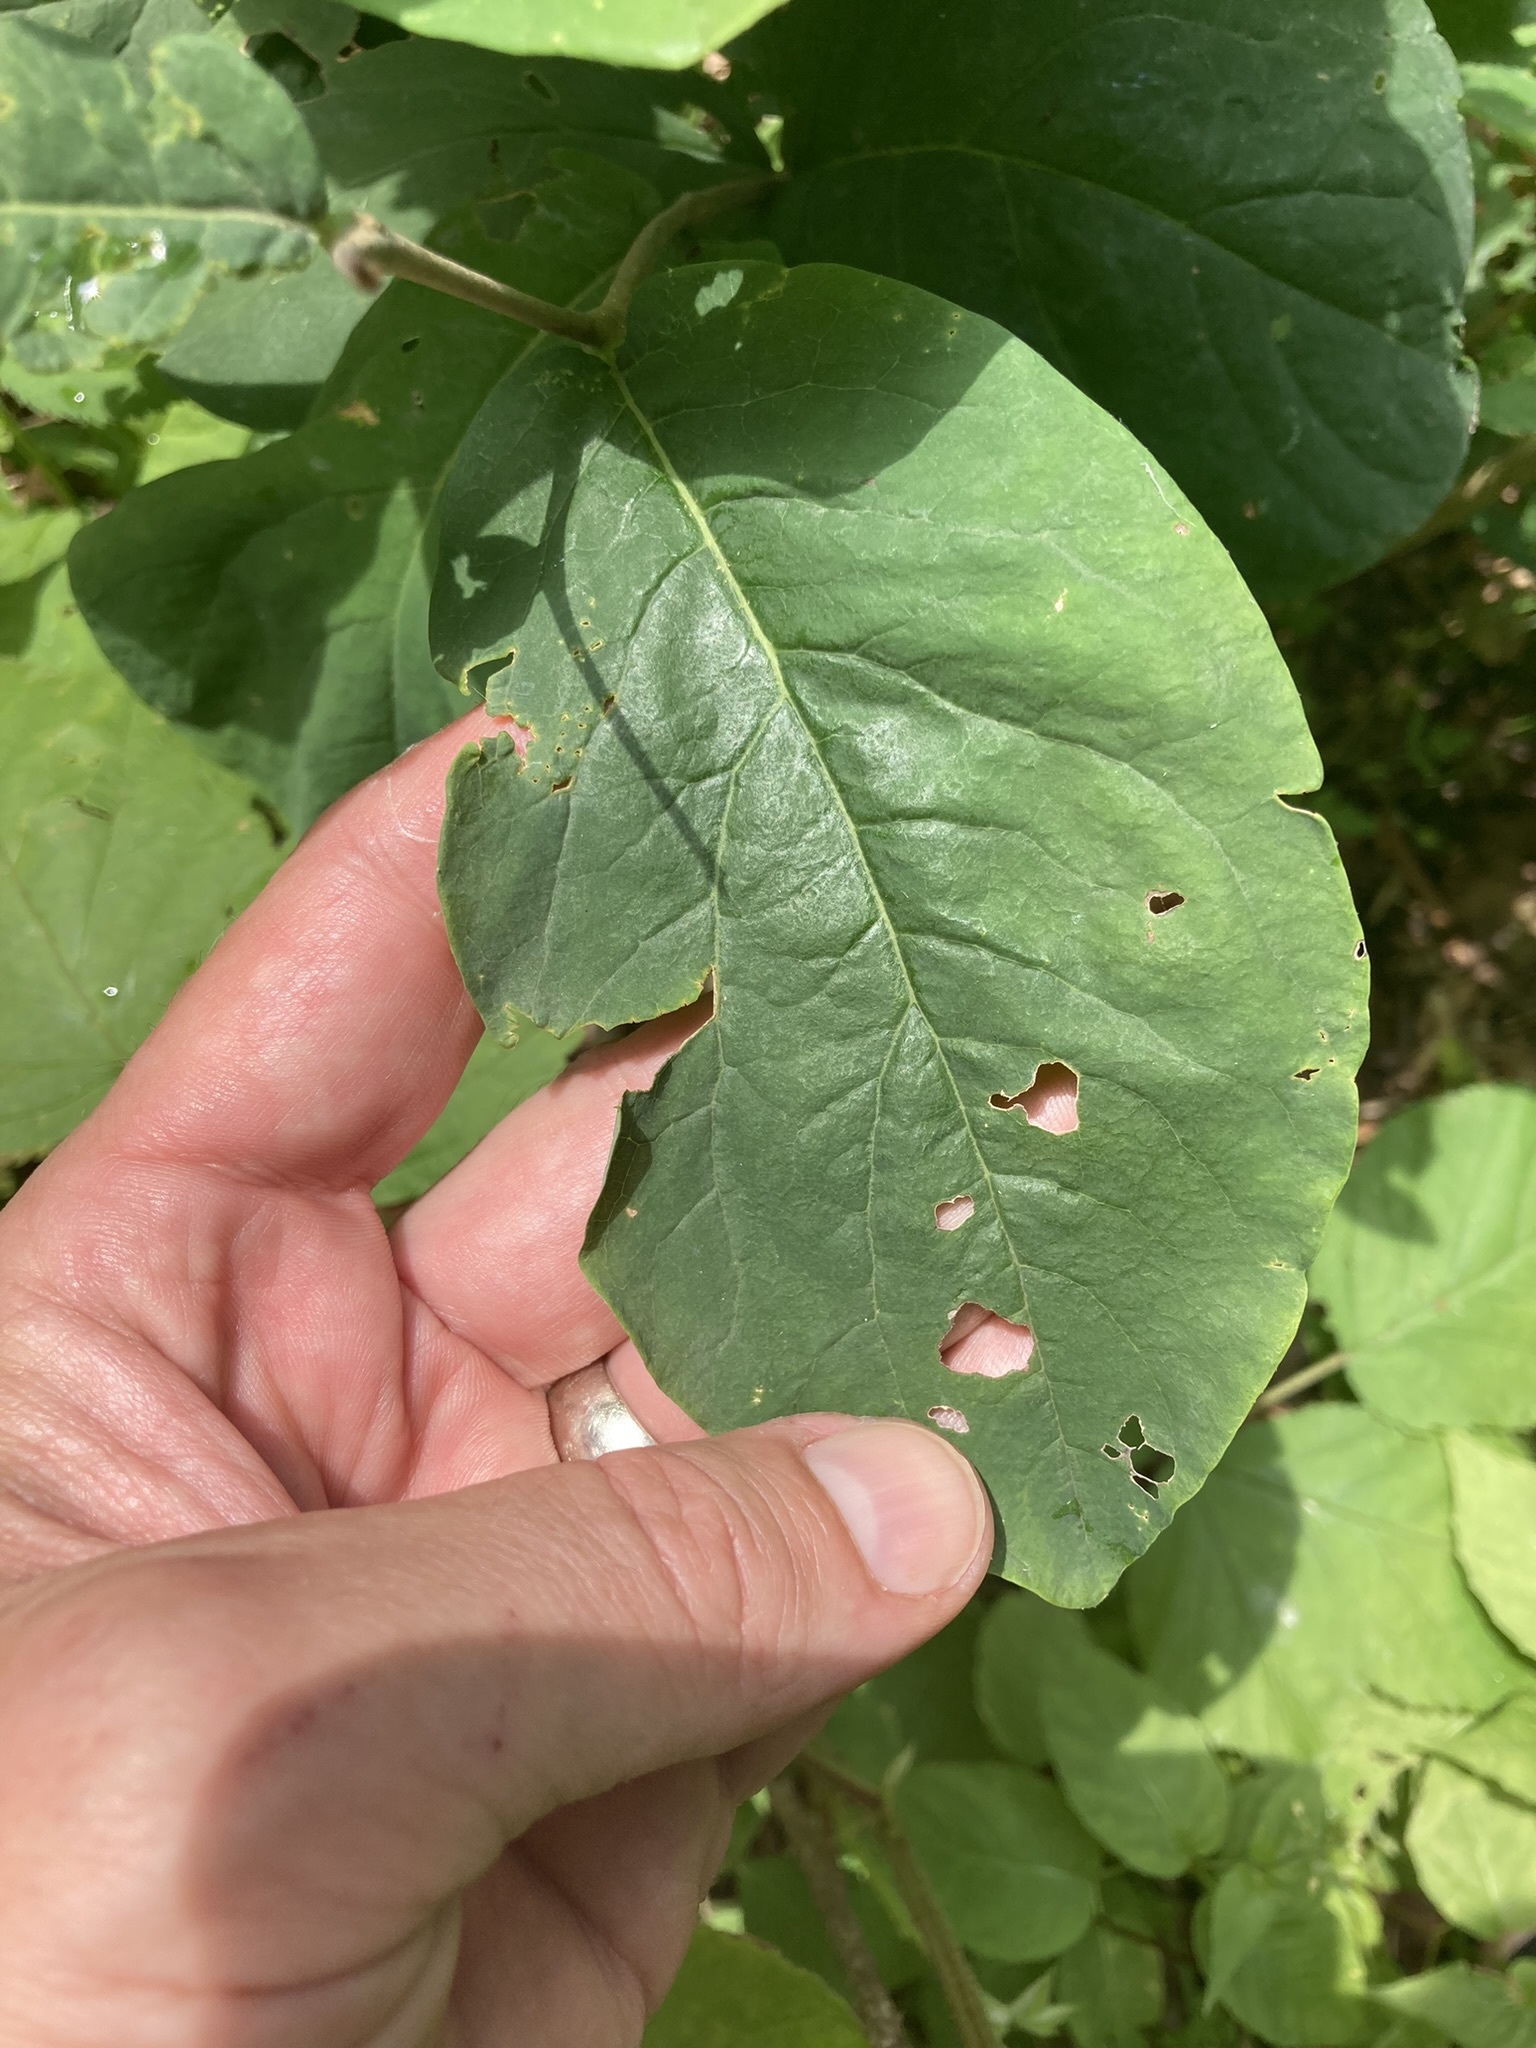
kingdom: Plantae
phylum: Tracheophyta
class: Magnoliopsida
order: Malvales
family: Thymelaeaceae
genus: Dirca
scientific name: Dirca palustris
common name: Leatherwood
